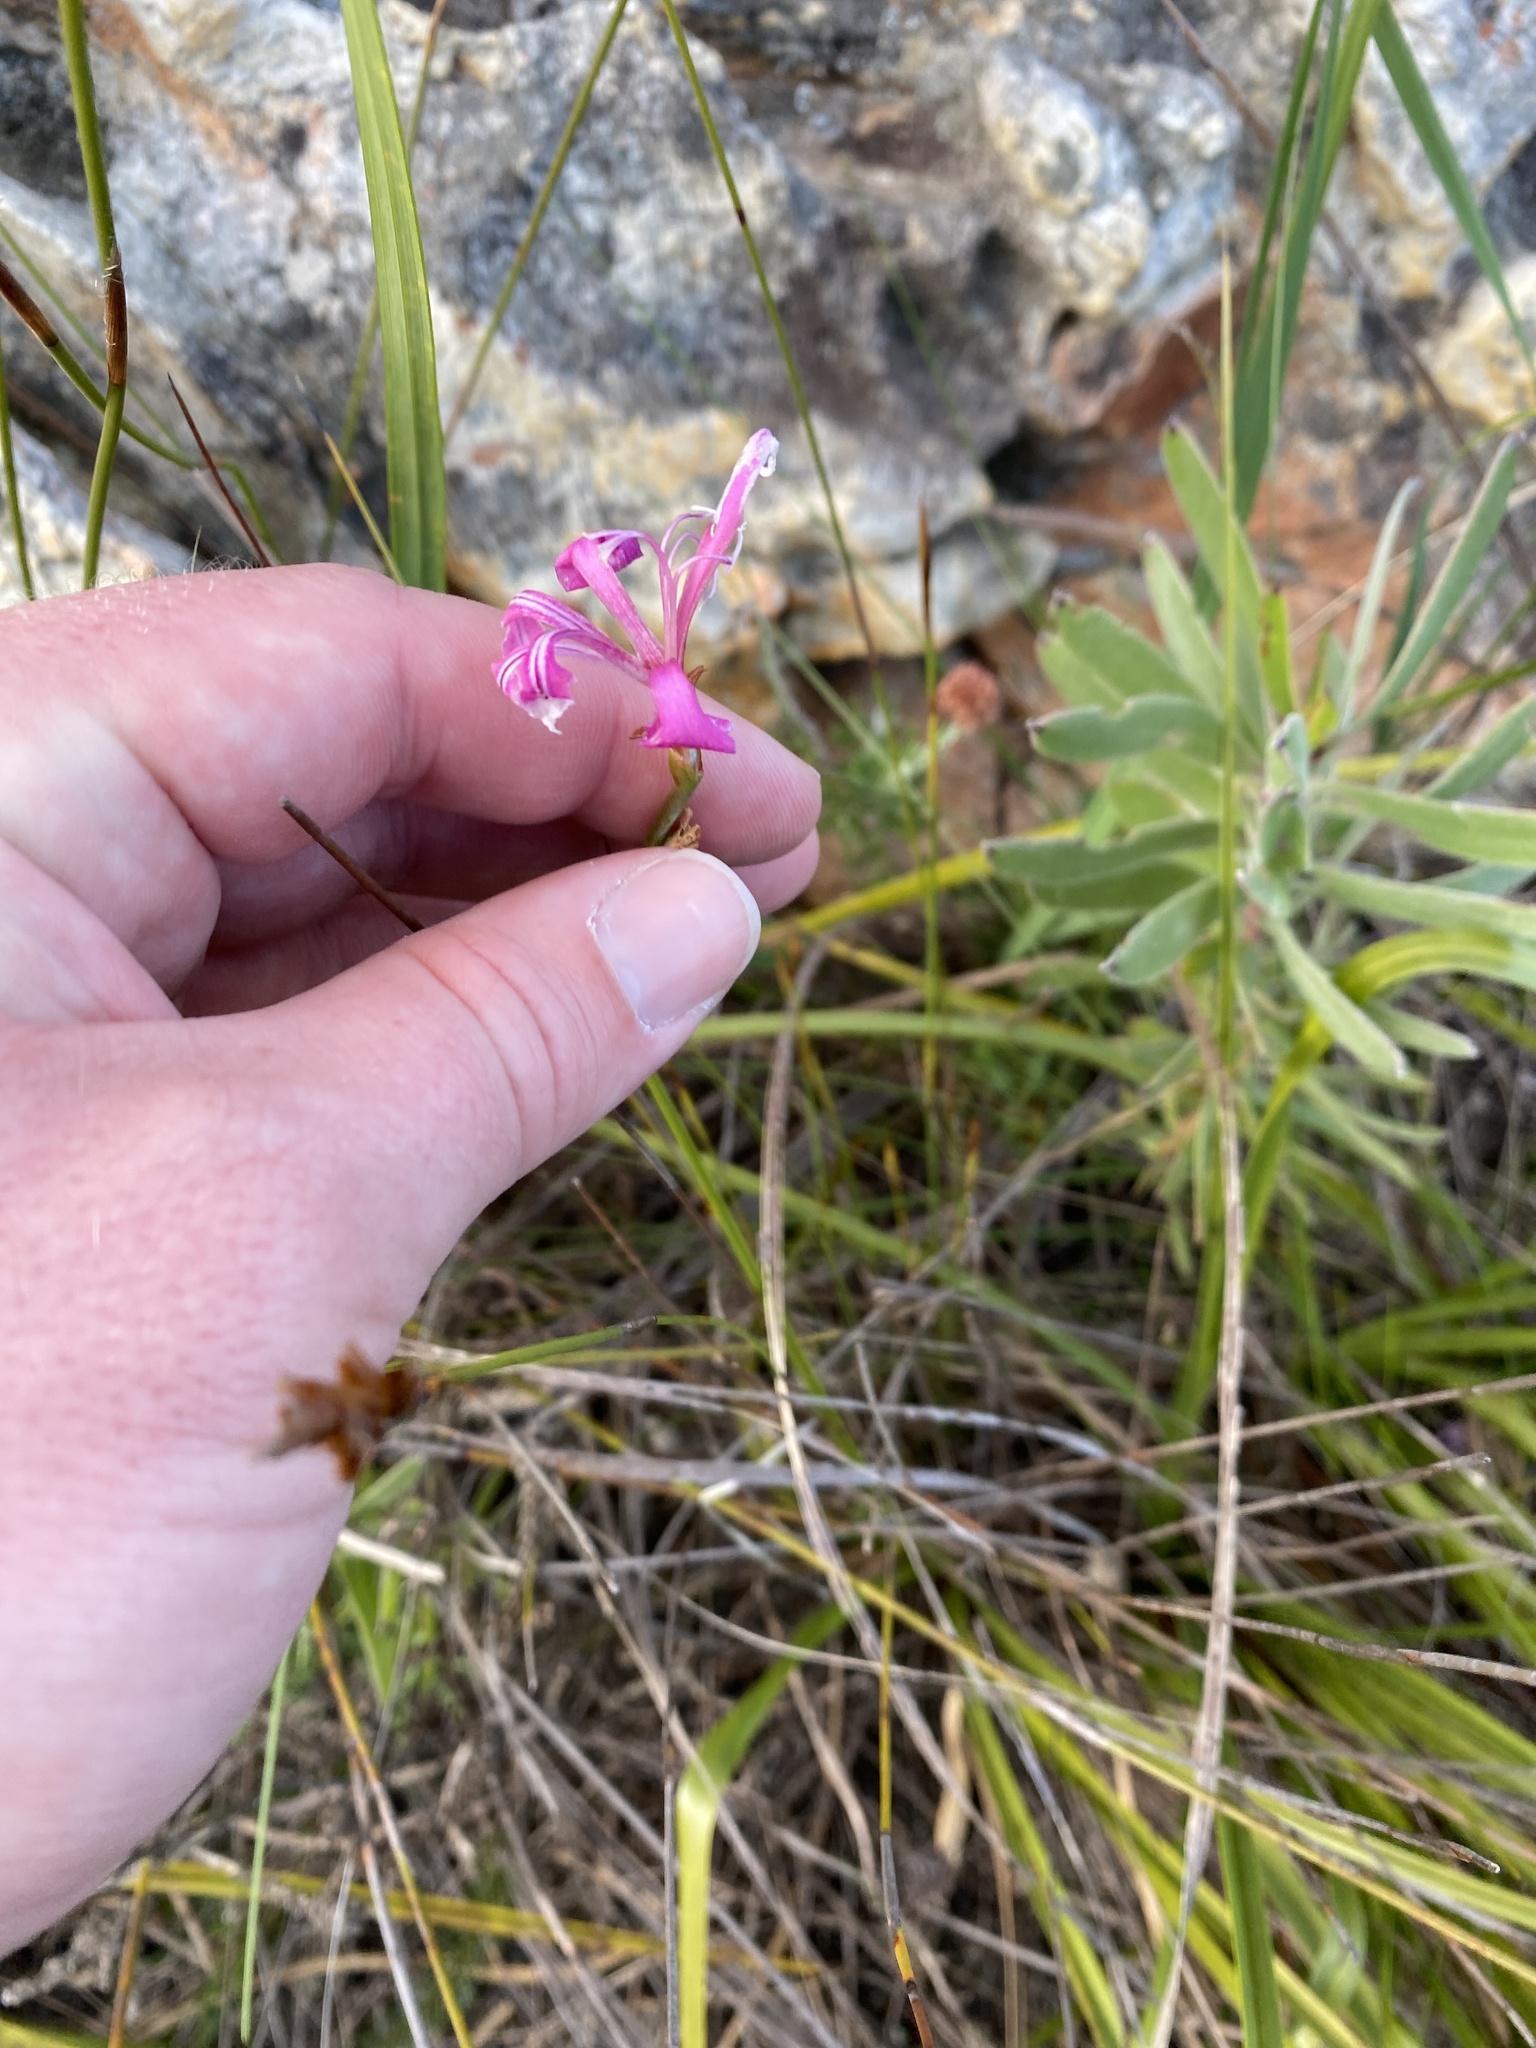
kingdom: Plantae
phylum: Tracheophyta
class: Liliopsida
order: Asparagales
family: Iridaceae
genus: Tritoniopsis
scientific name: Tritoniopsis lata
